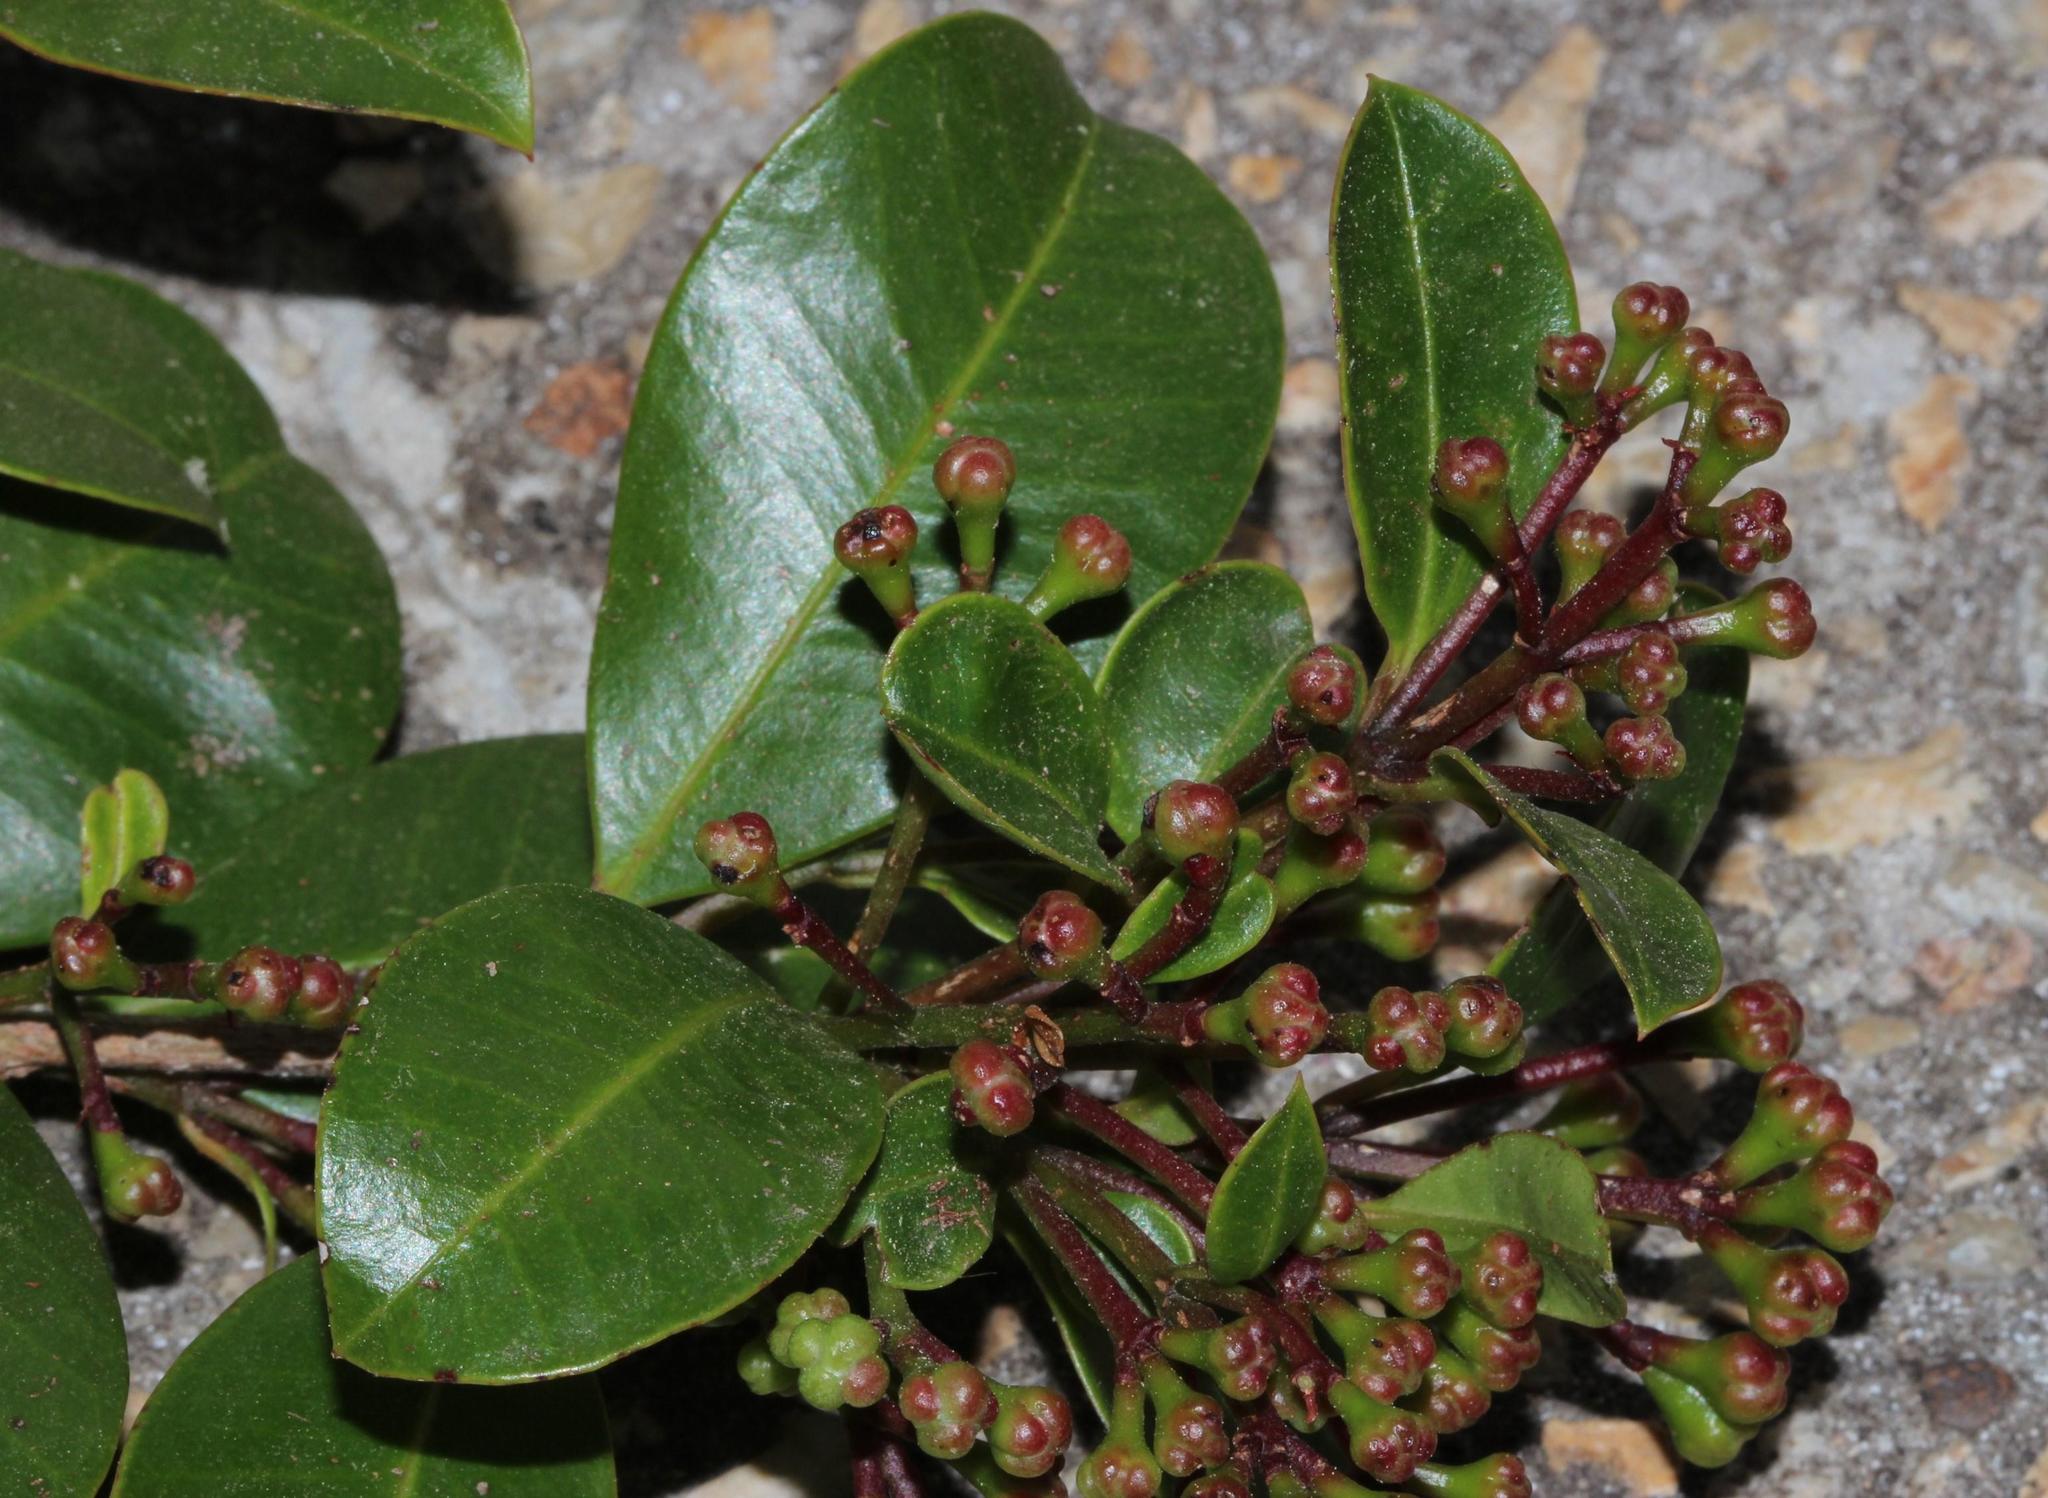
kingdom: Plantae
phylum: Tracheophyta
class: Magnoliopsida
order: Myrtales
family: Myrtaceae
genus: Syzygium
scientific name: Syzygium australe
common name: Australian brush-cherry
